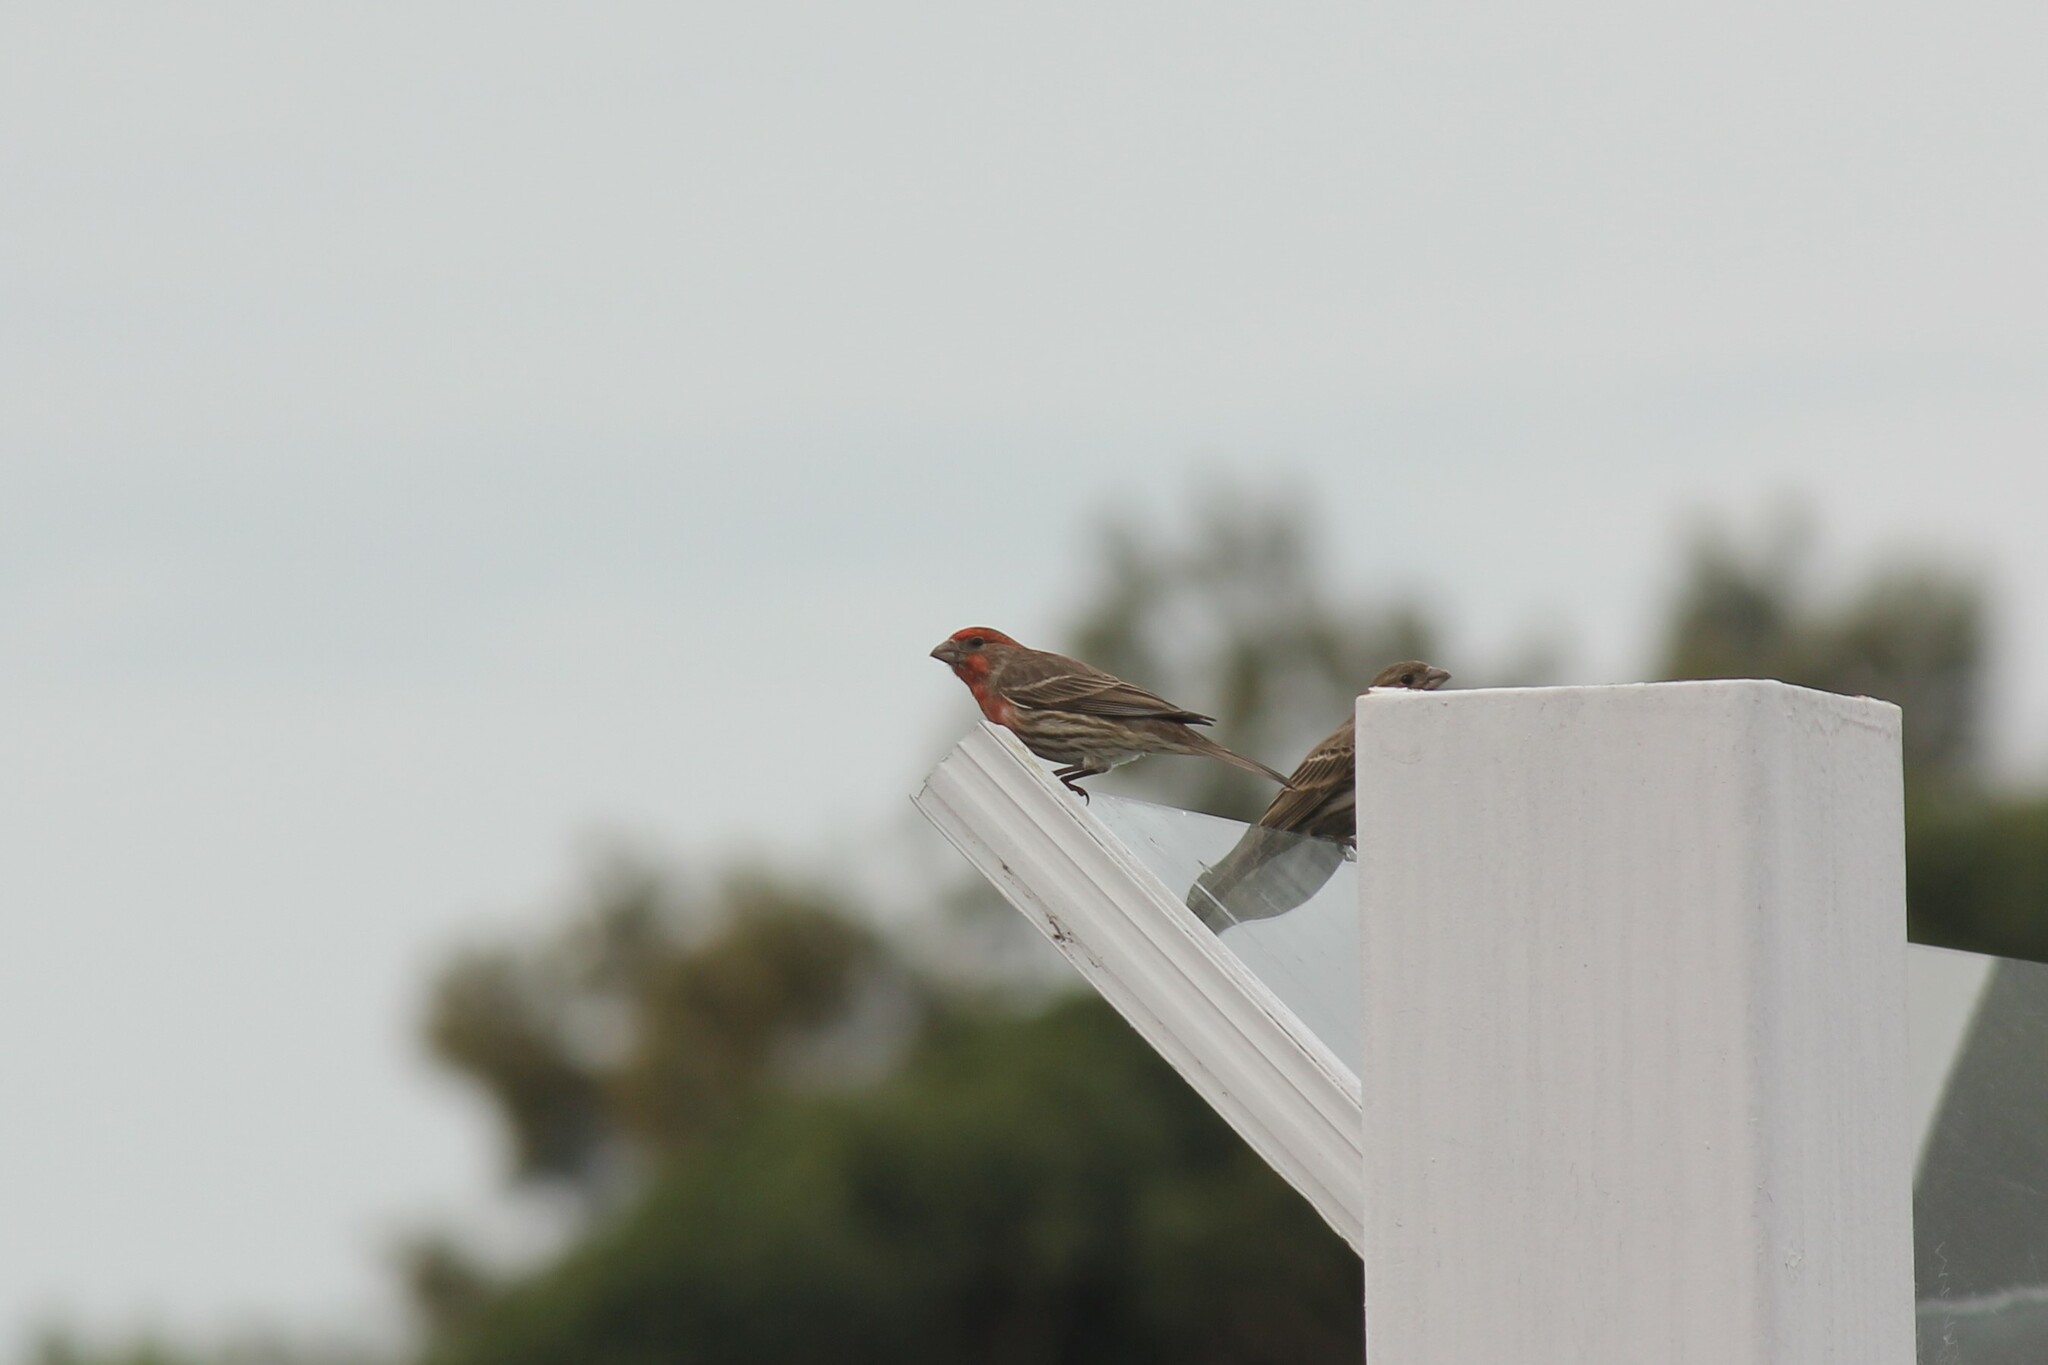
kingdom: Animalia
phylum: Chordata
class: Aves
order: Passeriformes
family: Fringillidae
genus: Haemorhous
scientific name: Haemorhous mexicanus
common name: House finch
